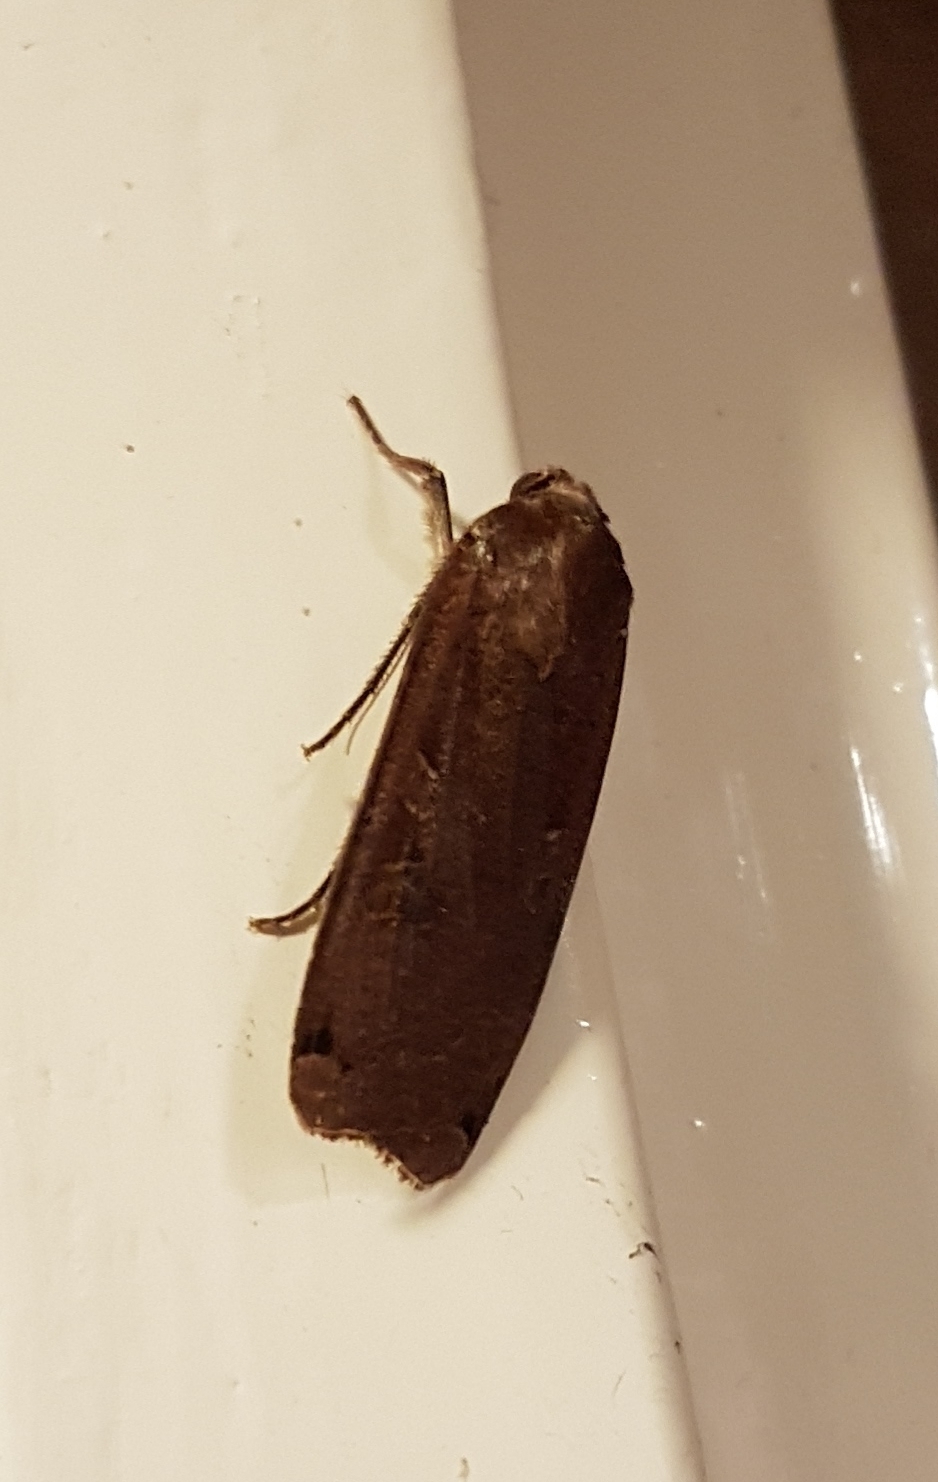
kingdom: Animalia
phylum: Arthropoda
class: Insecta
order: Lepidoptera
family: Noctuidae
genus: Noctua
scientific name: Noctua pronuba
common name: Large yellow underwing
